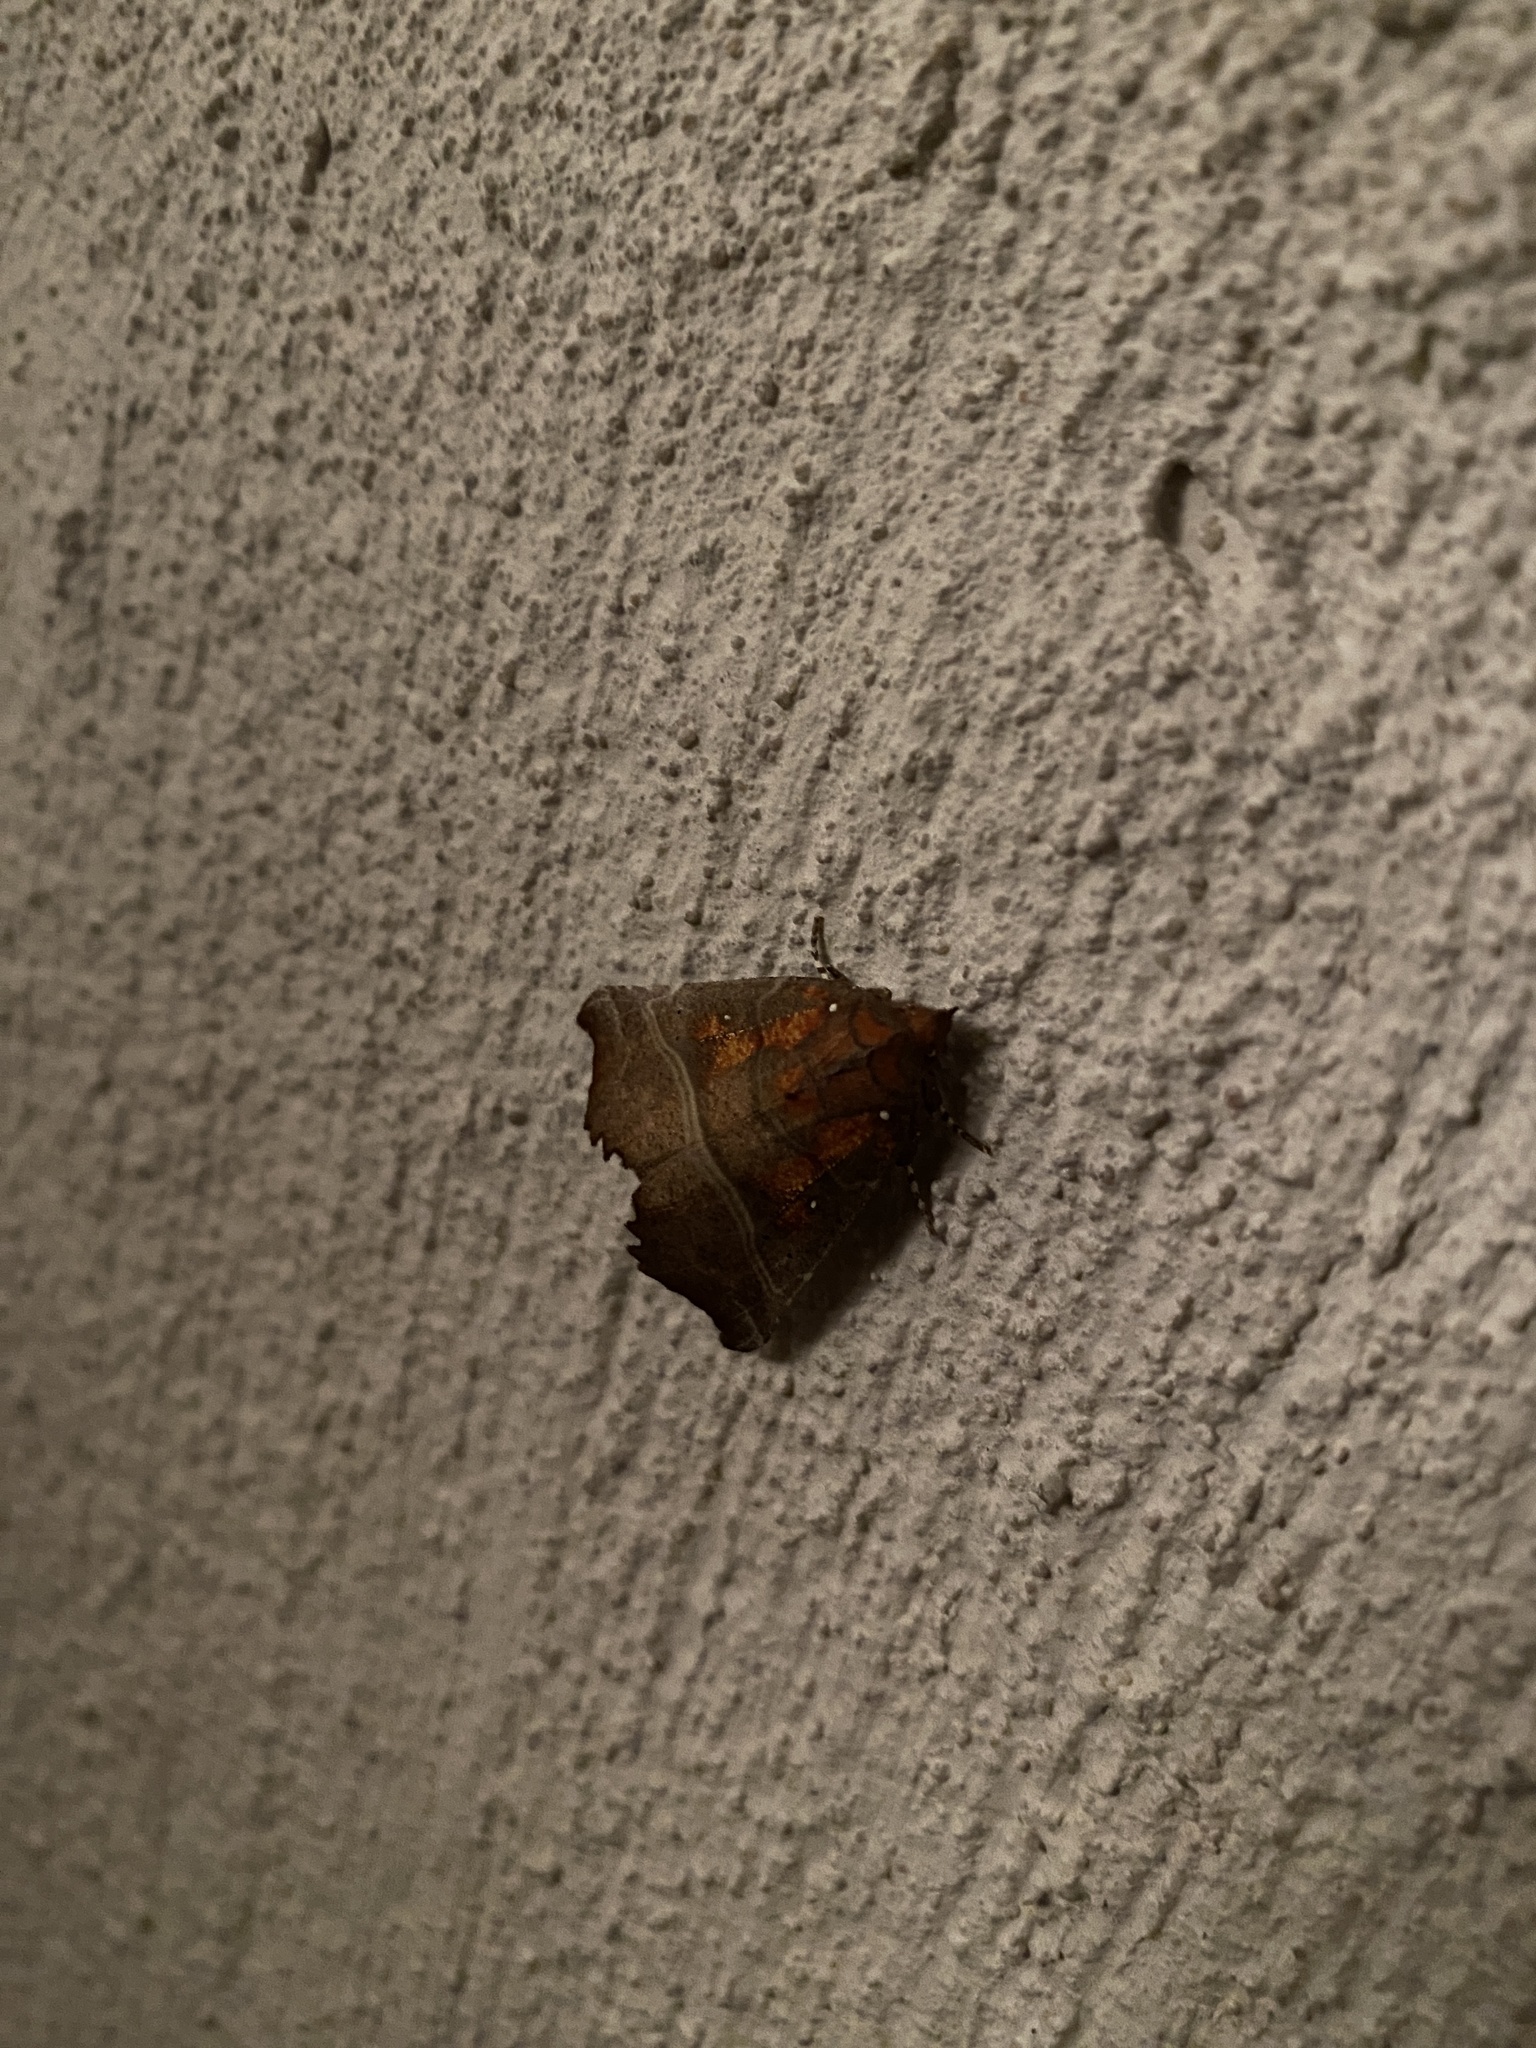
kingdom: Animalia
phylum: Arthropoda
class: Insecta
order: Lepidoptera
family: Erebidae
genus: Scoliopteryx
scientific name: Scoliopteryx libatrix
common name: Herald
